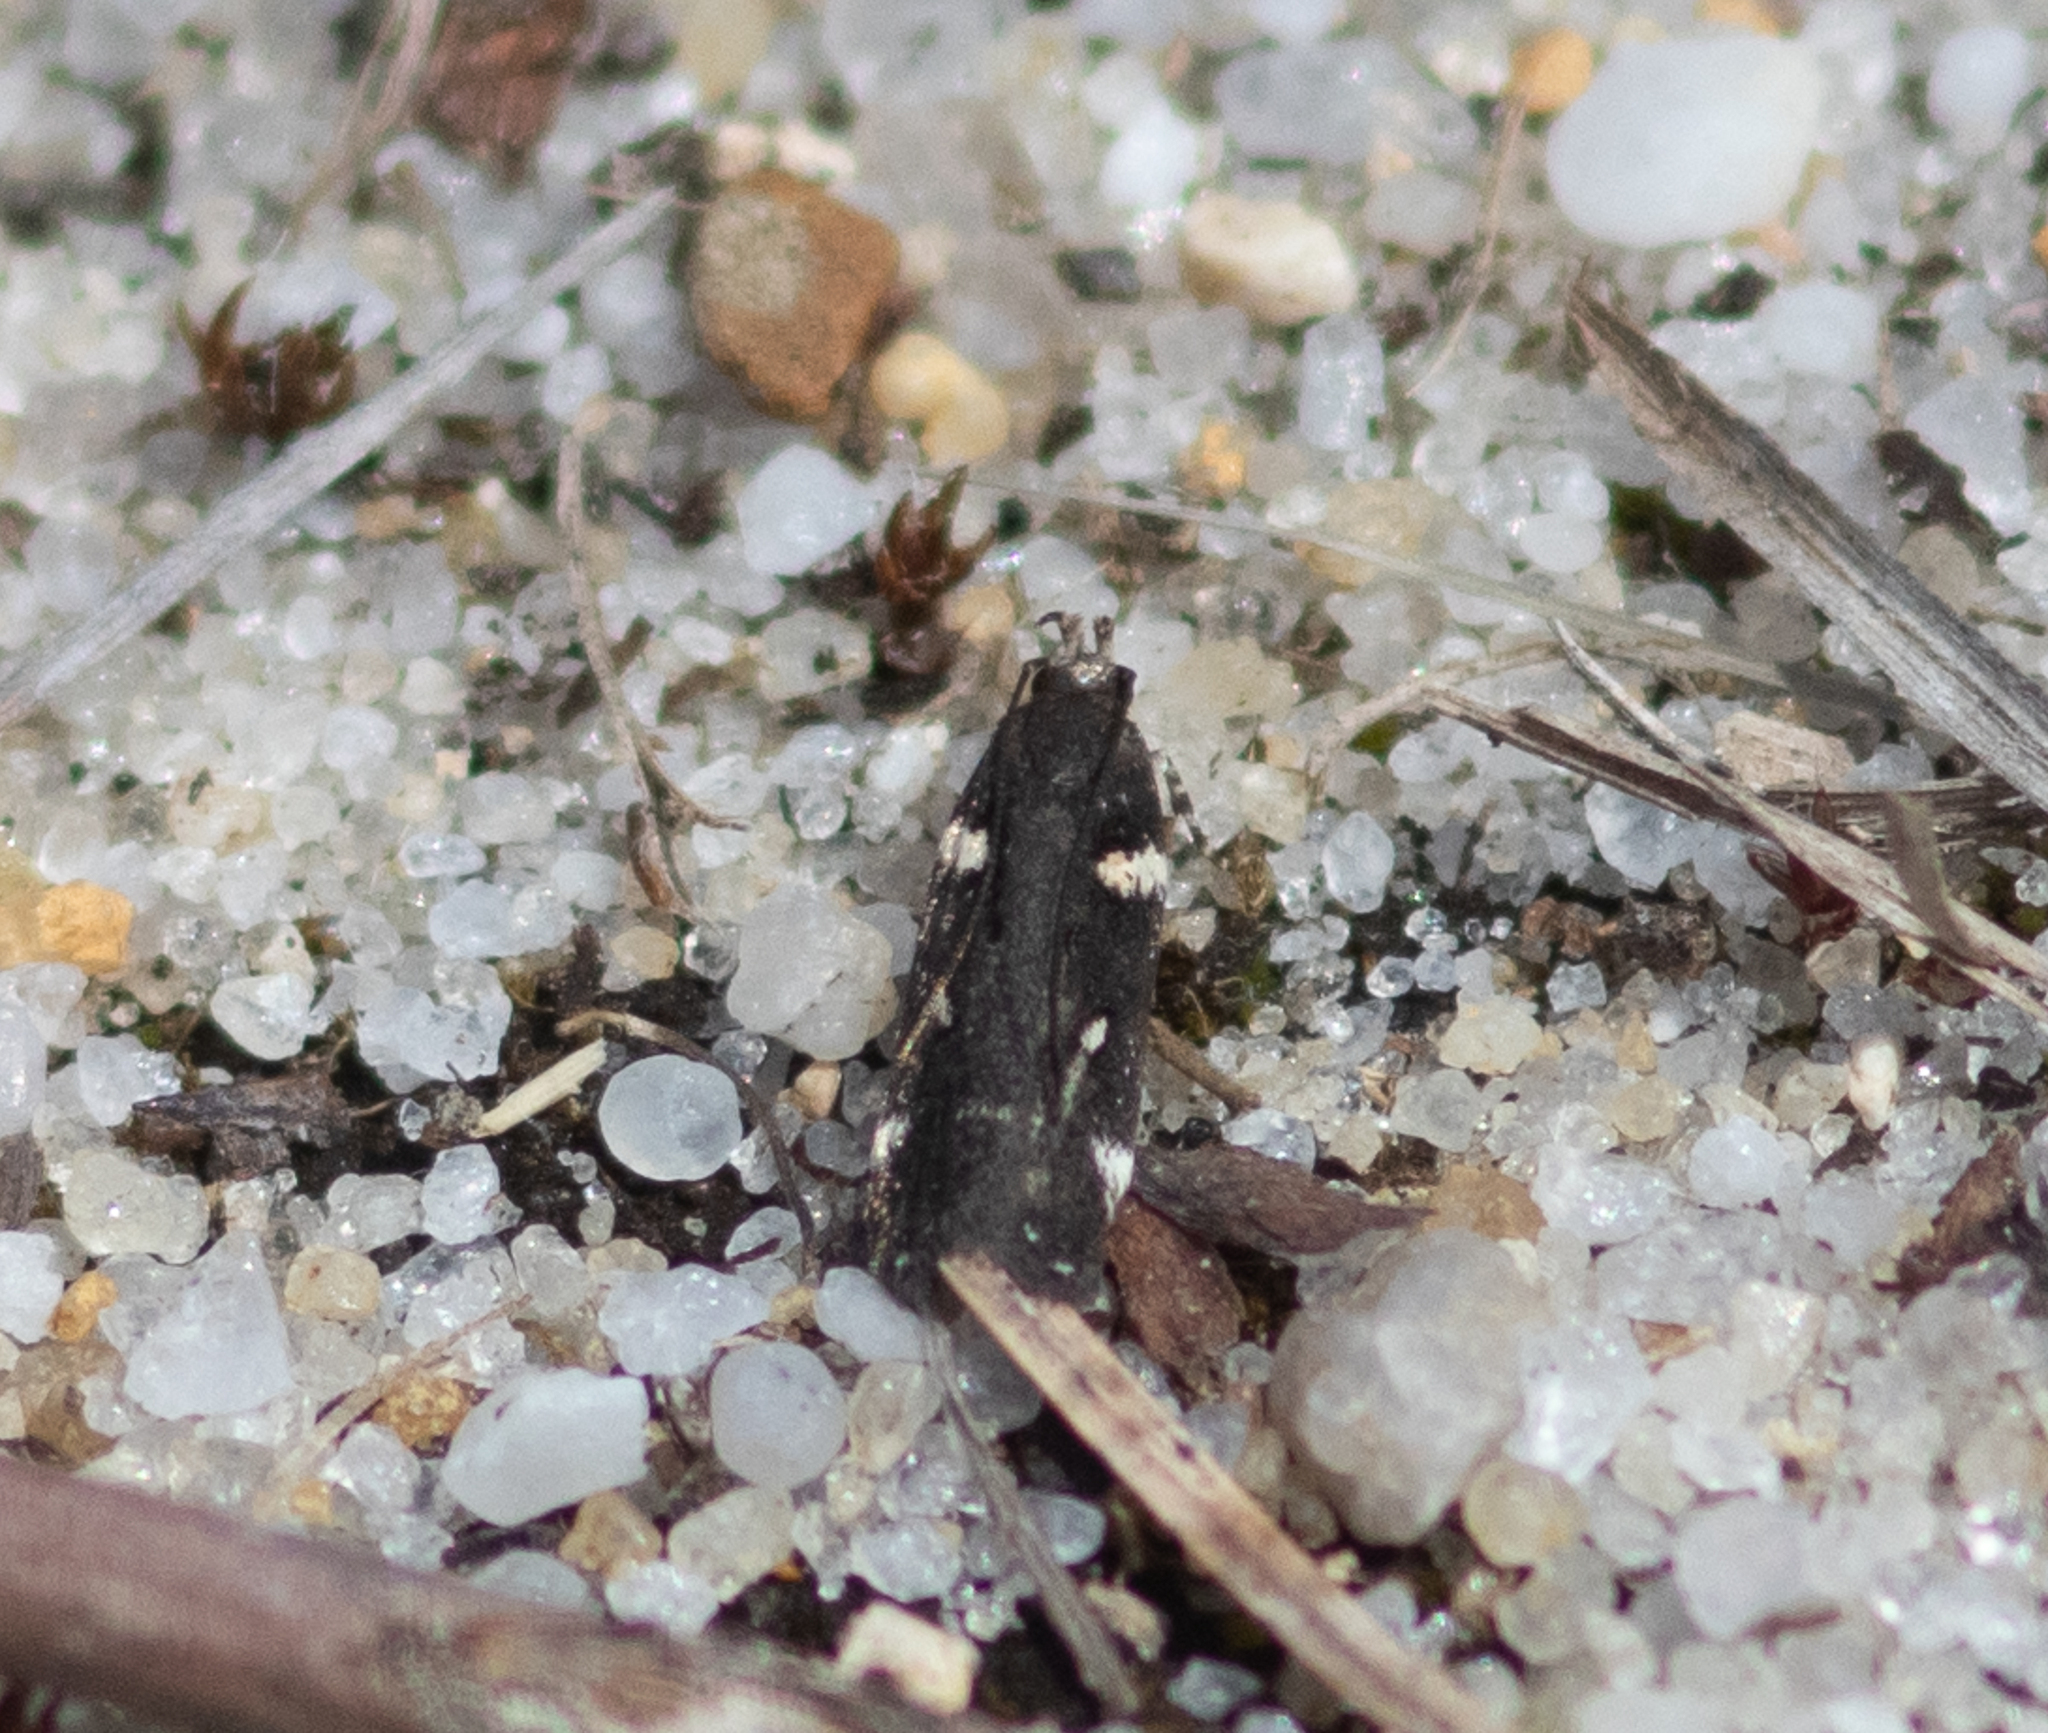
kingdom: Animalia
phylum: Arthropoda
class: Insecta
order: Lepidoptera
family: Gelechiidae
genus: Aroga
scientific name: Aroga compositella
